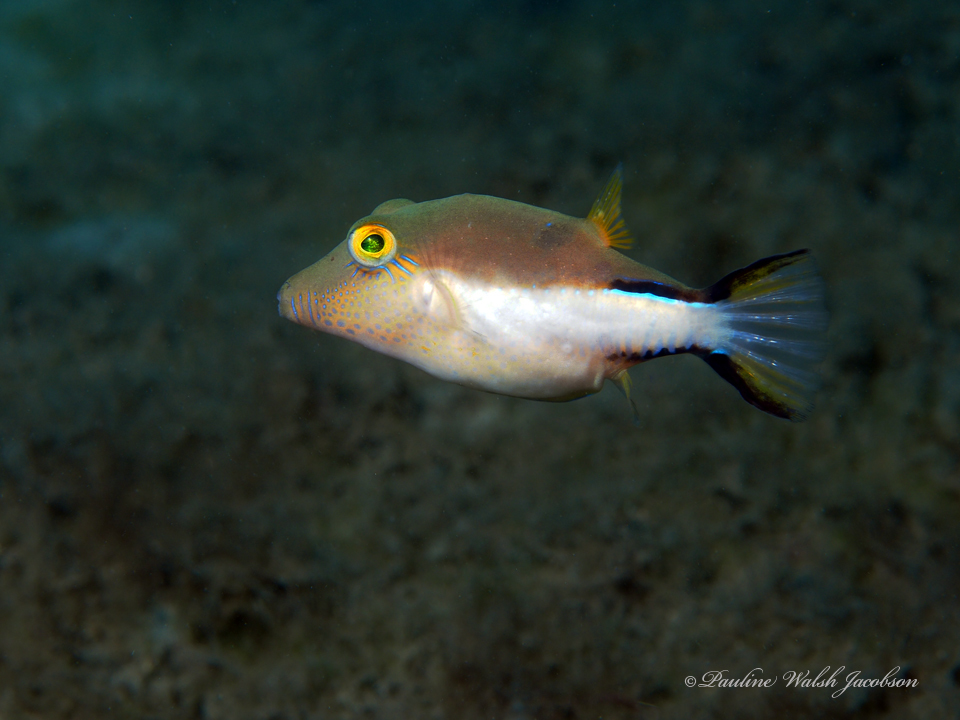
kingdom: Animalia
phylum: Chordata
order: Tetraodontiformes
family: Tetraodontidae
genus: Canthigaster
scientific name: Canthigaster rostrata
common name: Caribbean sharpnose-puffer
